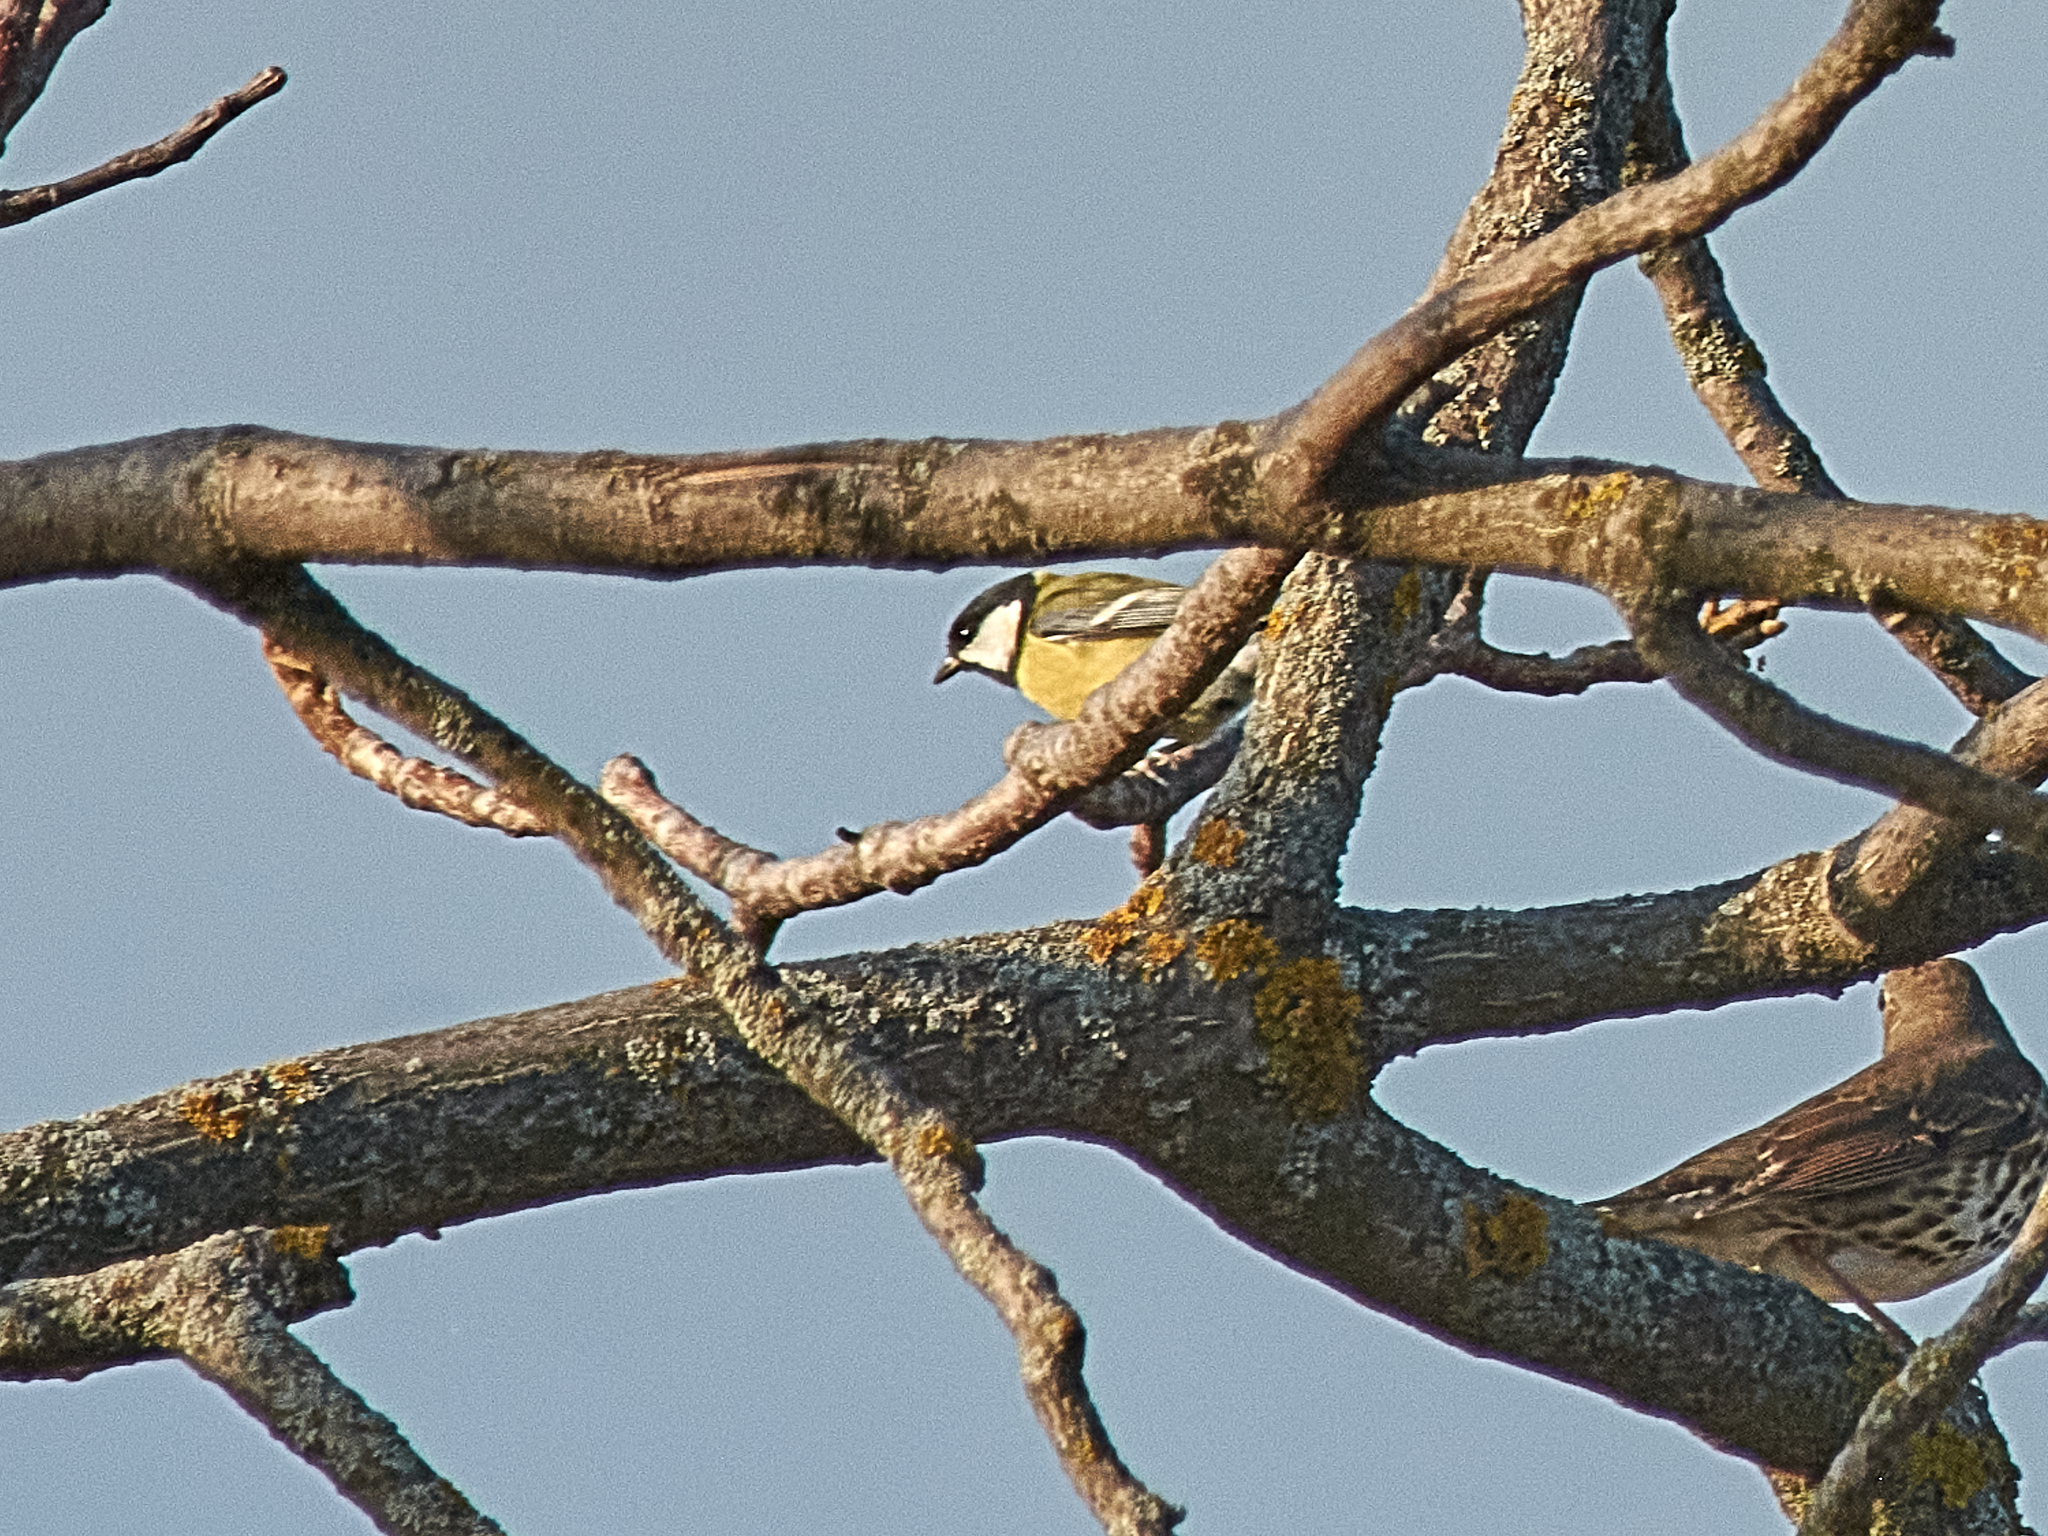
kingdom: Animalia
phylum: Chordata
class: Aves
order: Passeriformes
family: Paridae
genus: Parus
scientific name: Parus major
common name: Great tit
